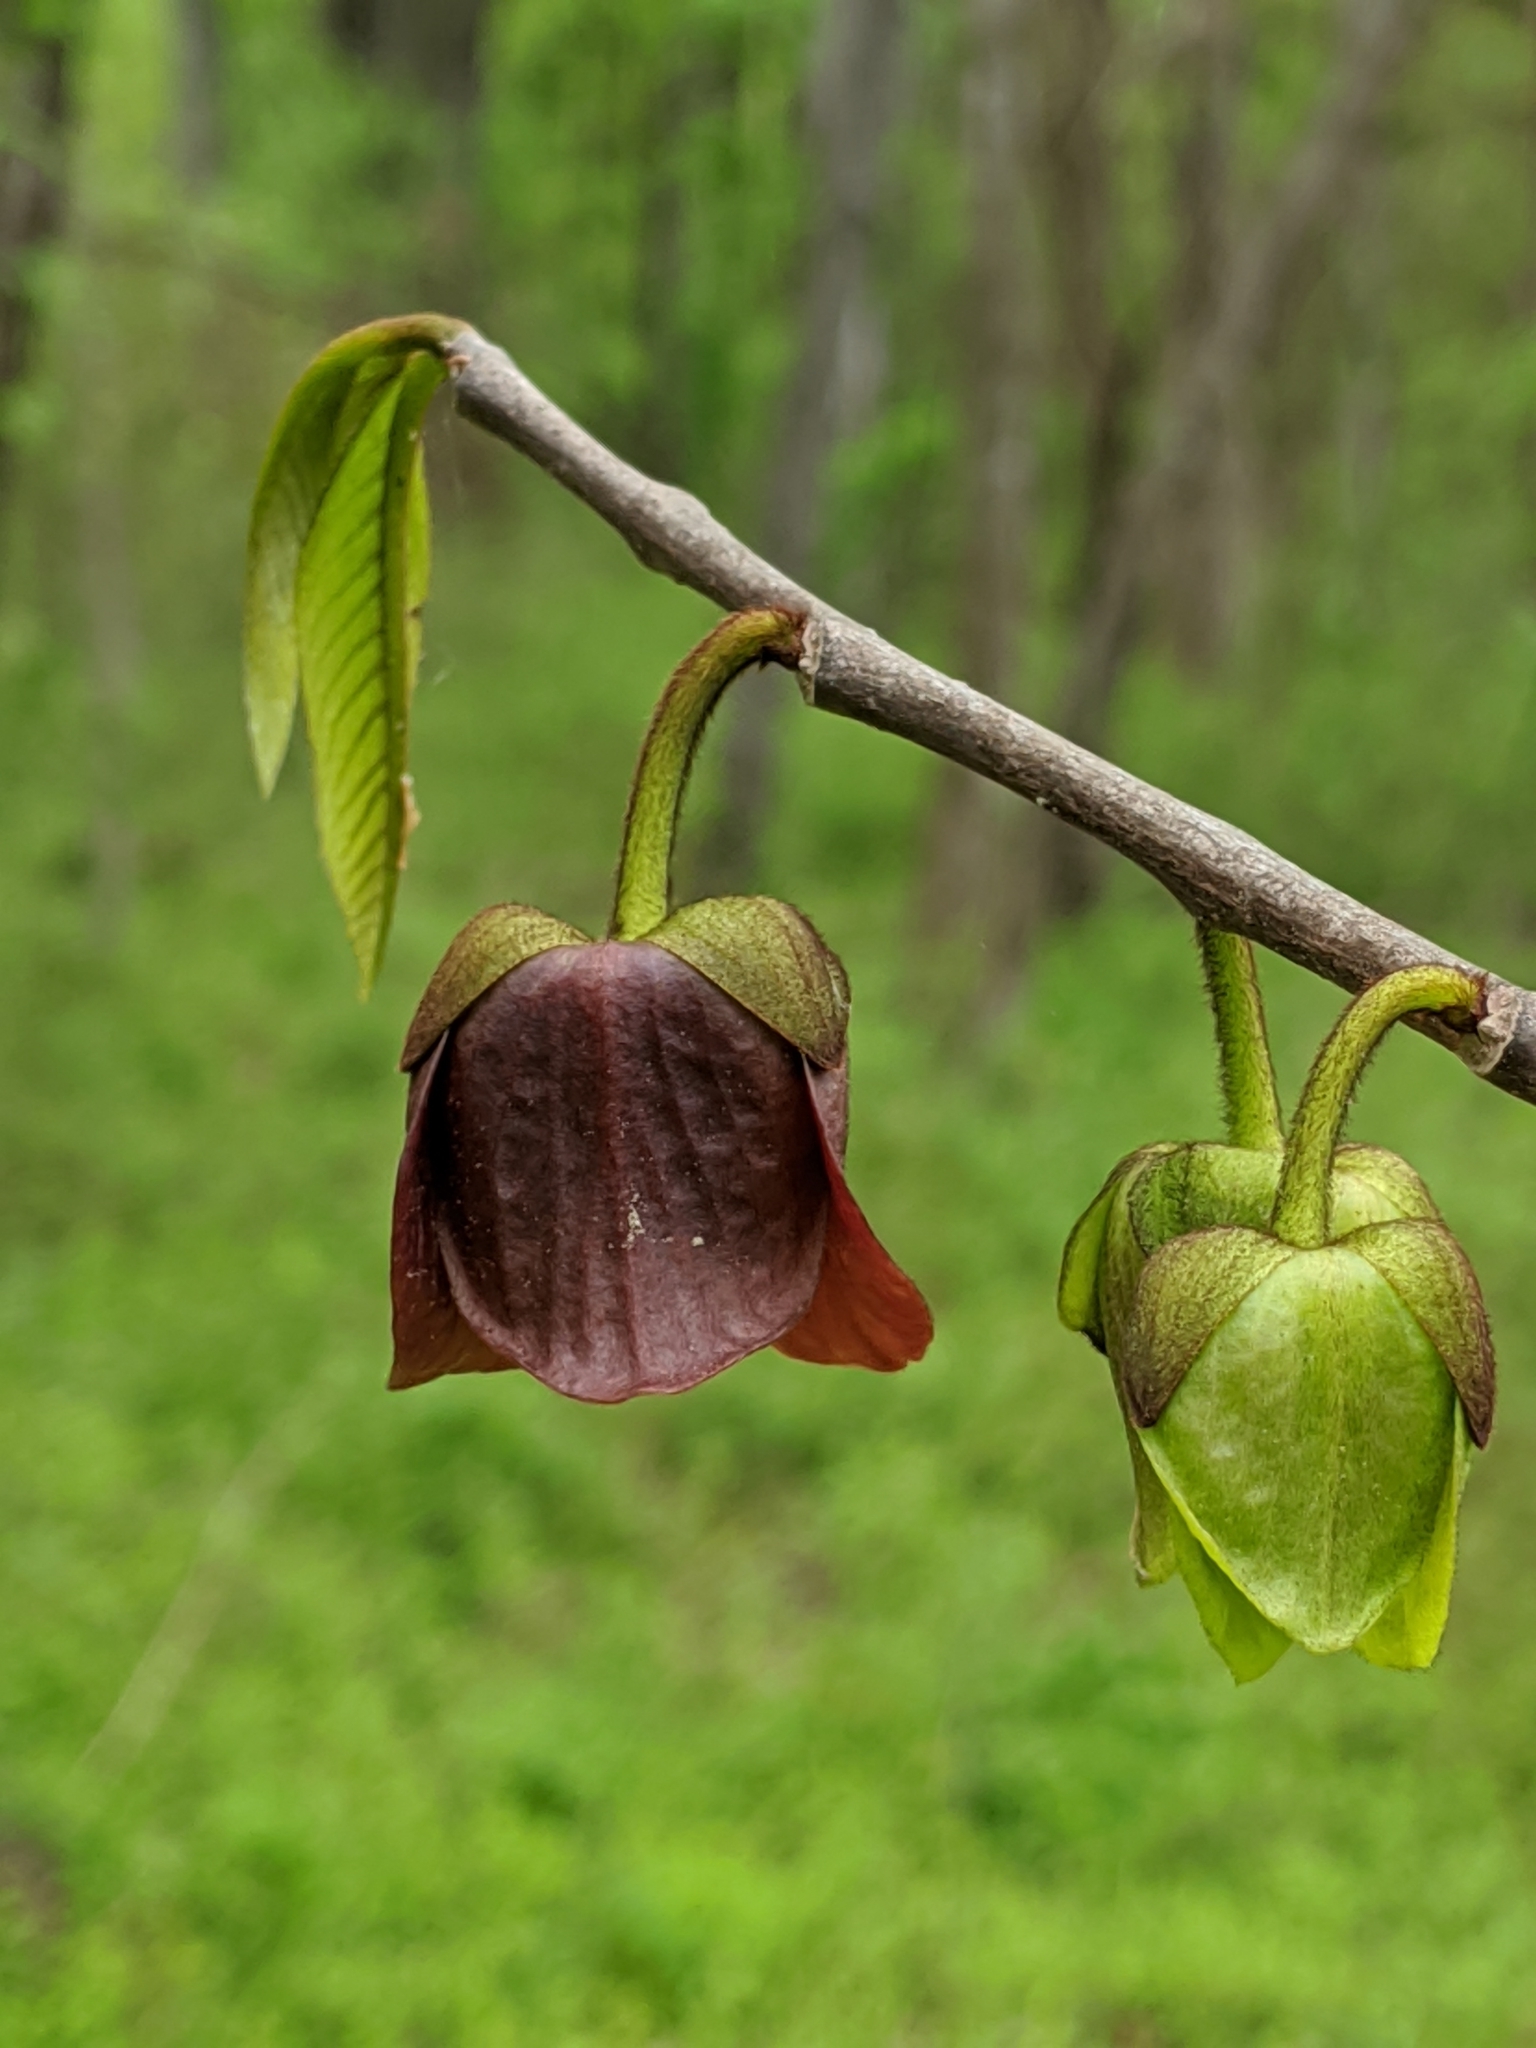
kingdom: Plantae
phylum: Tracheophyta
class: Magnoliopsida
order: Magnoliales
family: Annonaceae
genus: Asimina
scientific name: Asimina triloba
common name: Dog-banana
